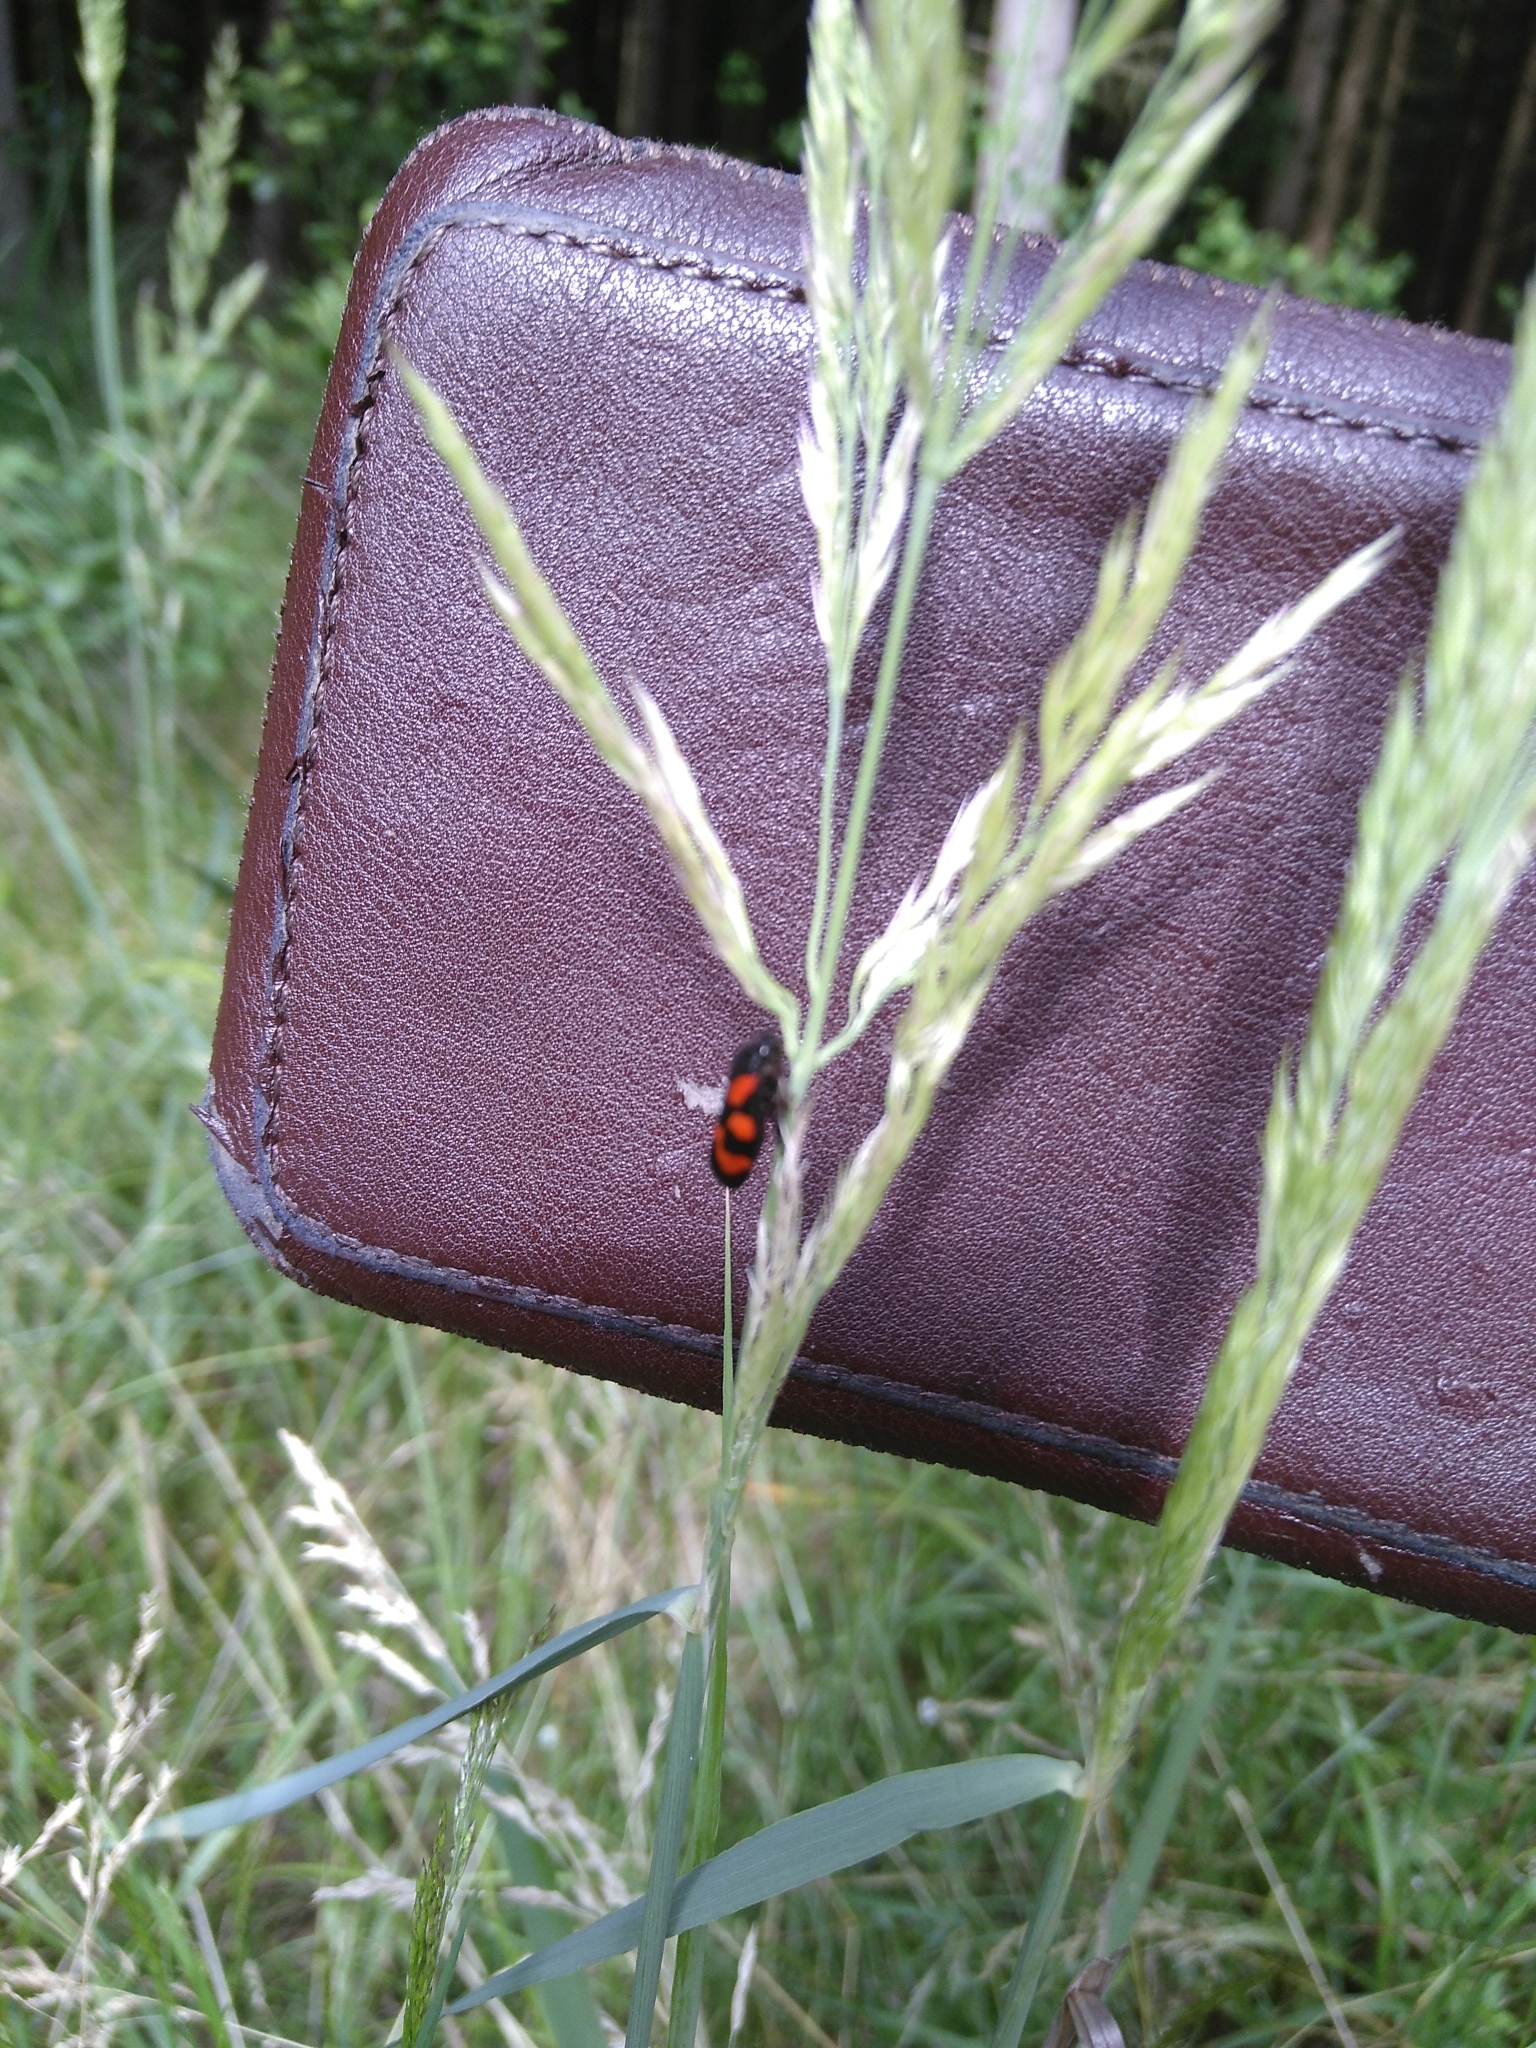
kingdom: Animalia
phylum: Arthropoda
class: Insecta
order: Hemiptera
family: Cercopidae
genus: Cercopis
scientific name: Cercopis vulnerata
